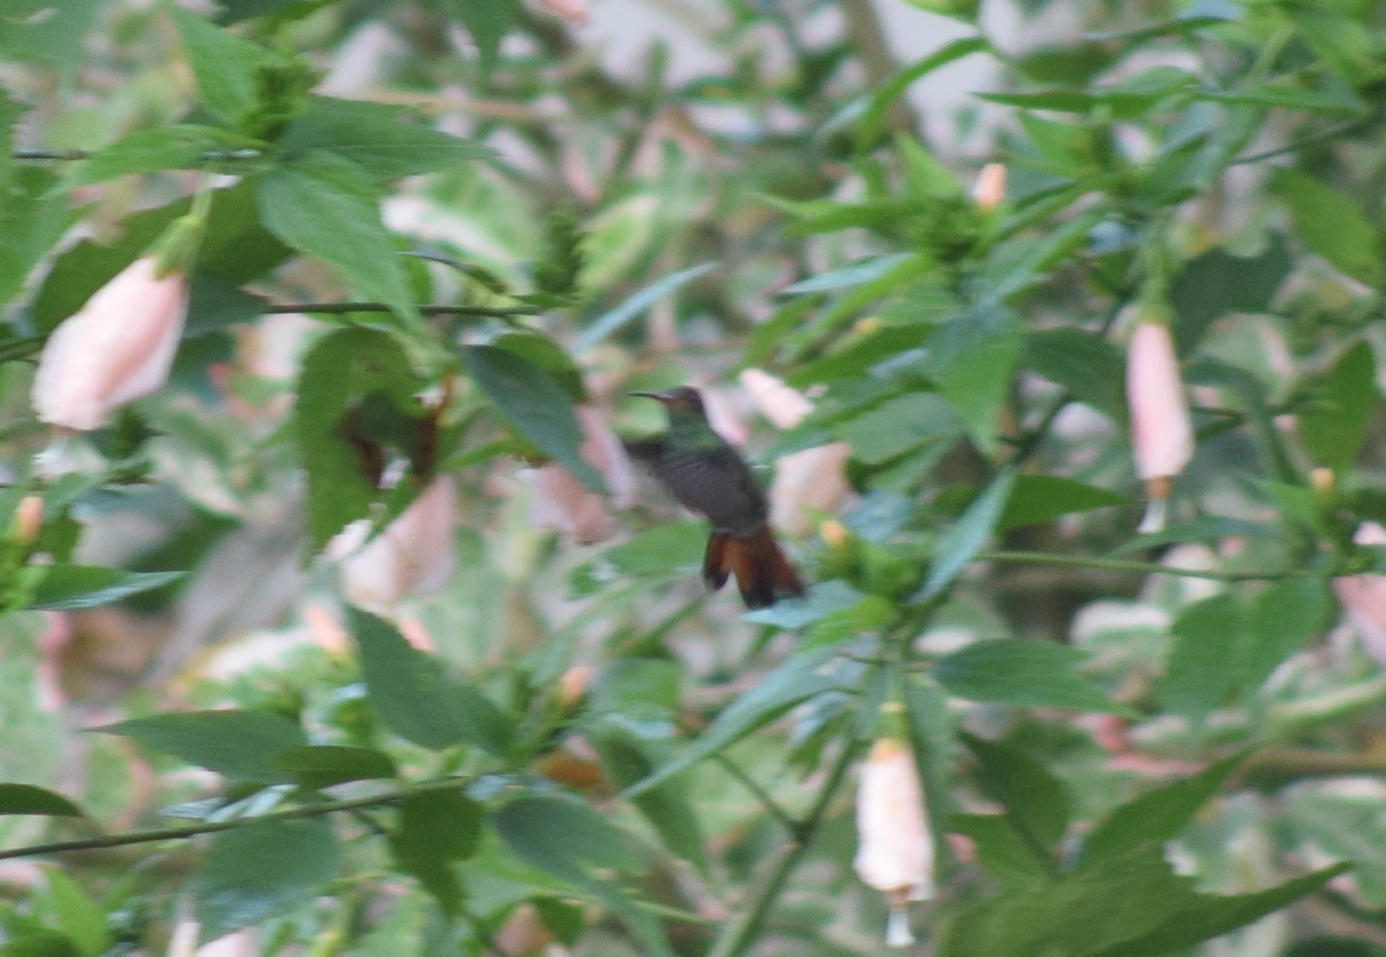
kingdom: Animalia
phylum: Chordata
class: Aves
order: Apodiformes
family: Trochilidae
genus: Amazilia
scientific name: Amazilia tzacatl
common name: Rufous-tailed hummingbird
